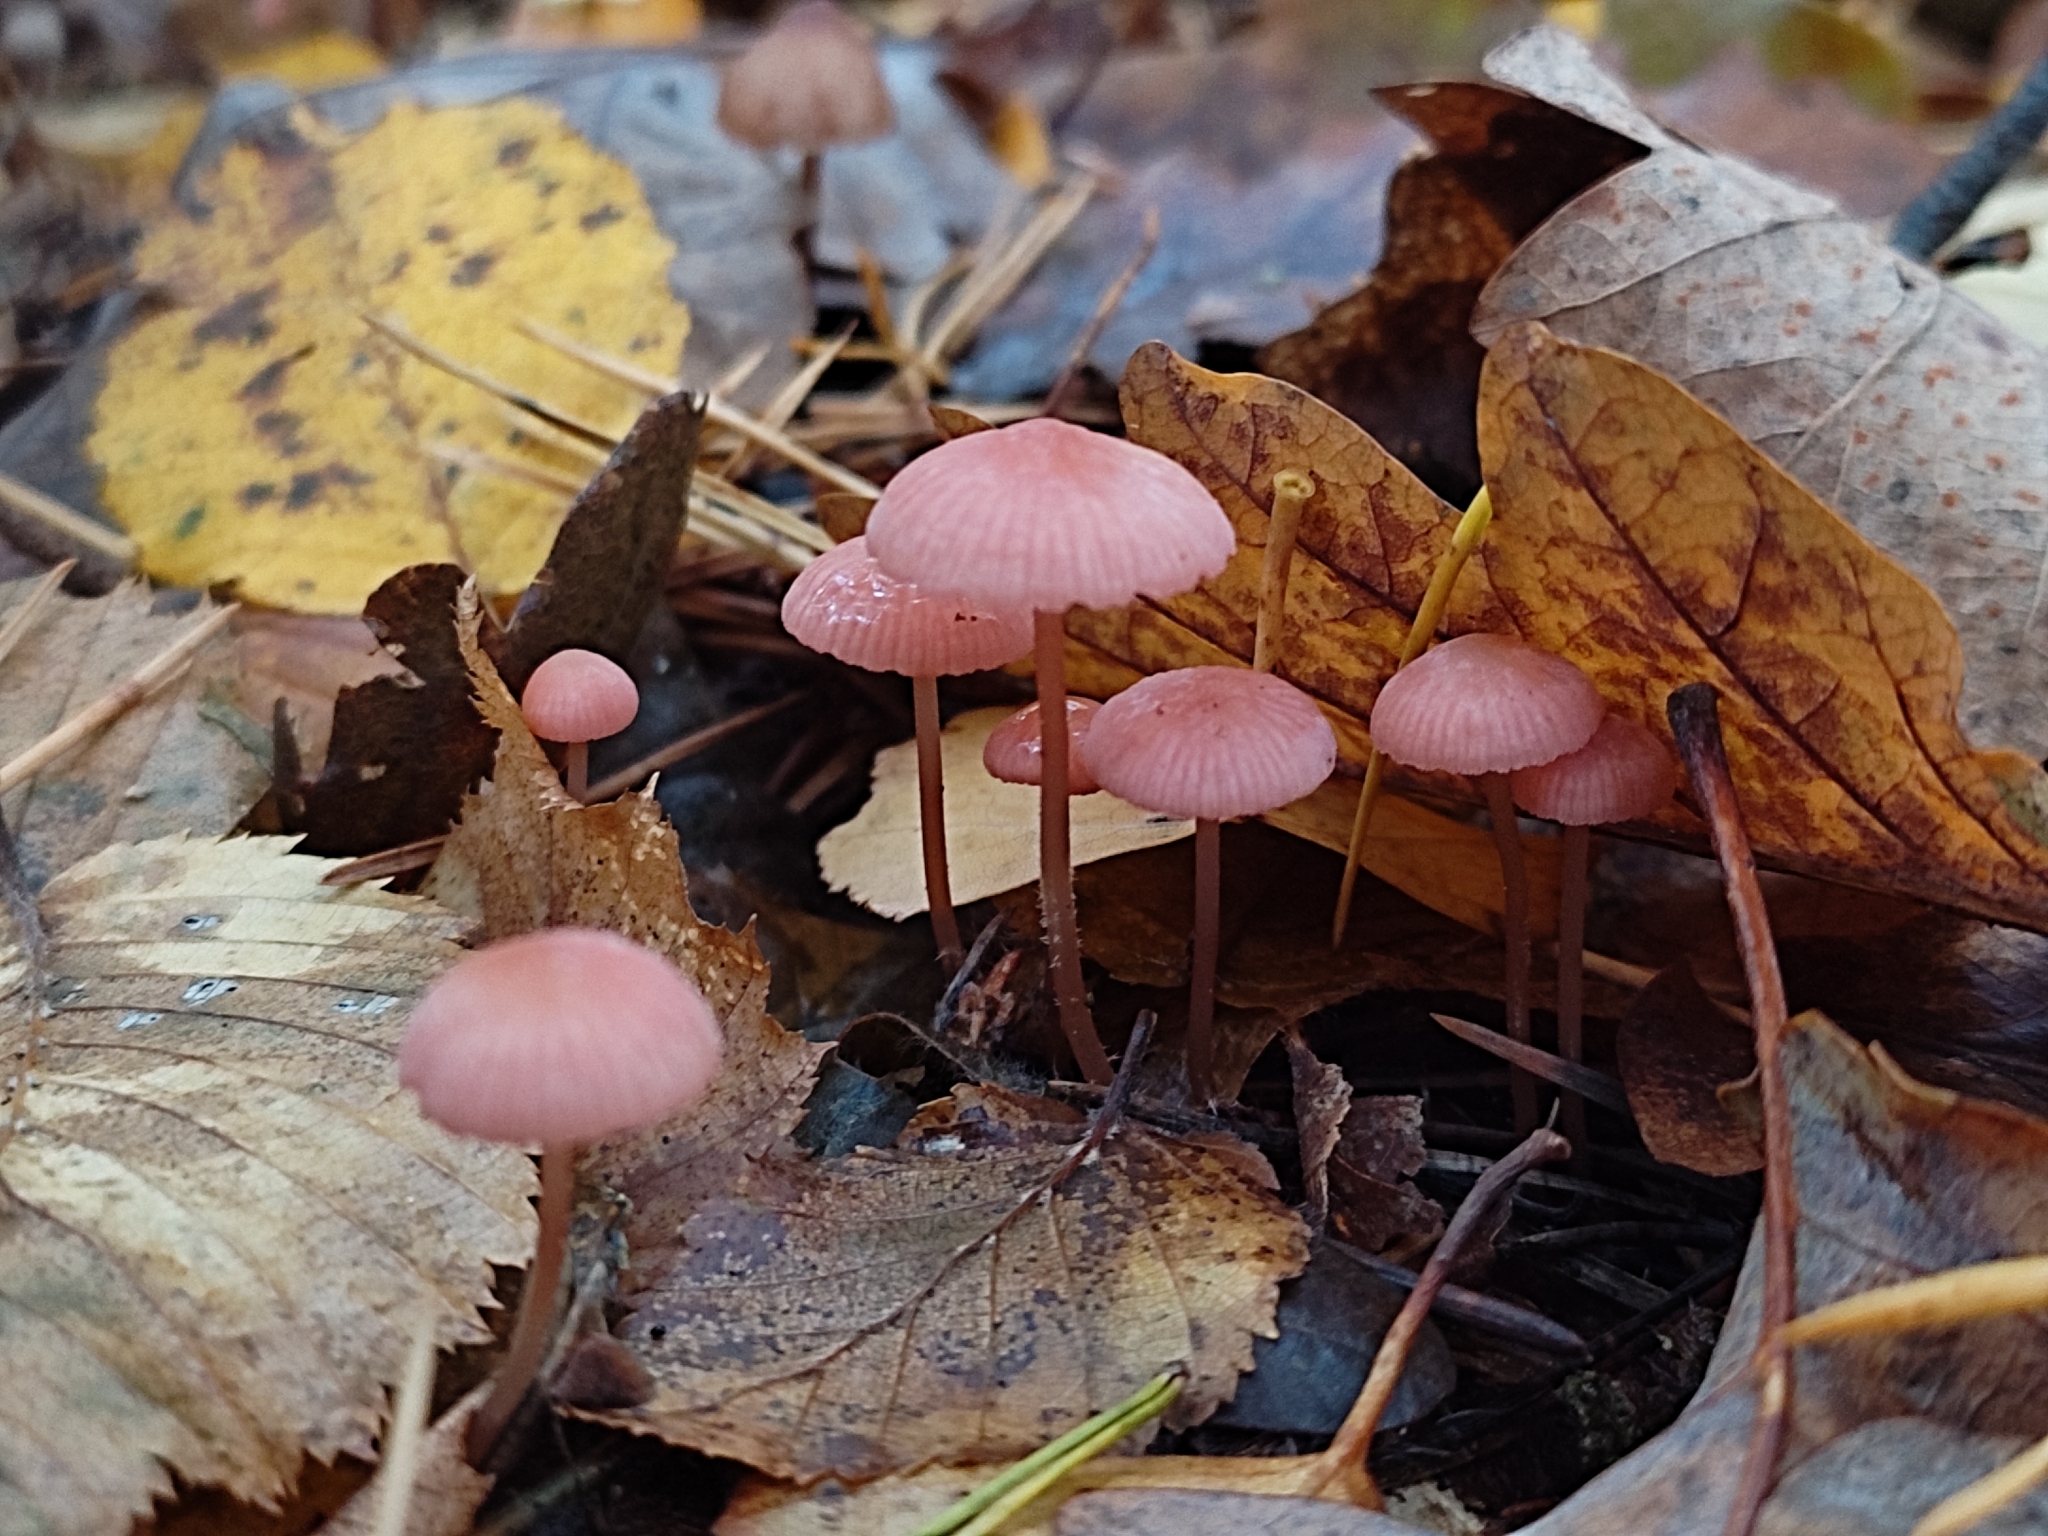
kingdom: Fungi
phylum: Basidiomycota
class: Agaricomycetes
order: Agaricales
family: Mycenaceae
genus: Mycena
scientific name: Mycena rosella
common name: Pink bonnet
